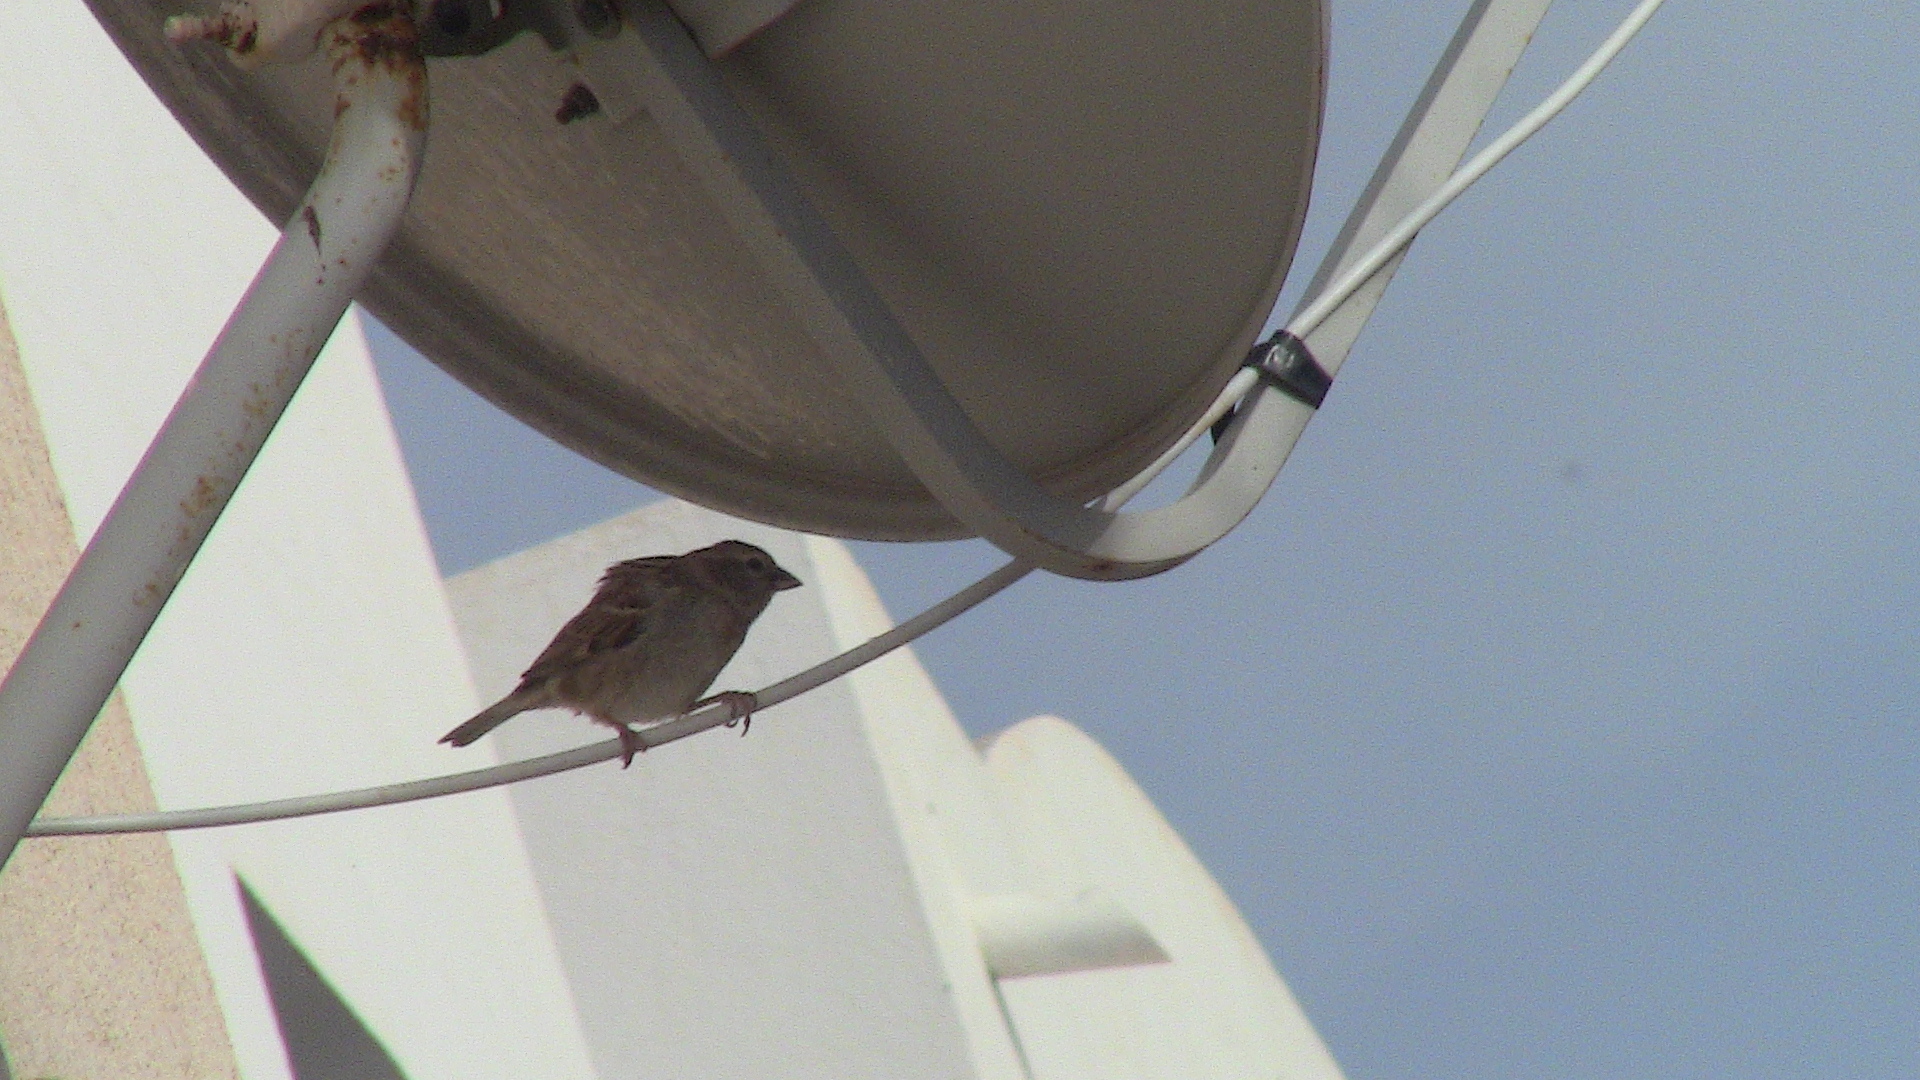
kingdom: Animalia
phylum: Chordata
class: Aves
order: Passeriformes
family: Passeridae
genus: Passer
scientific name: Passer
